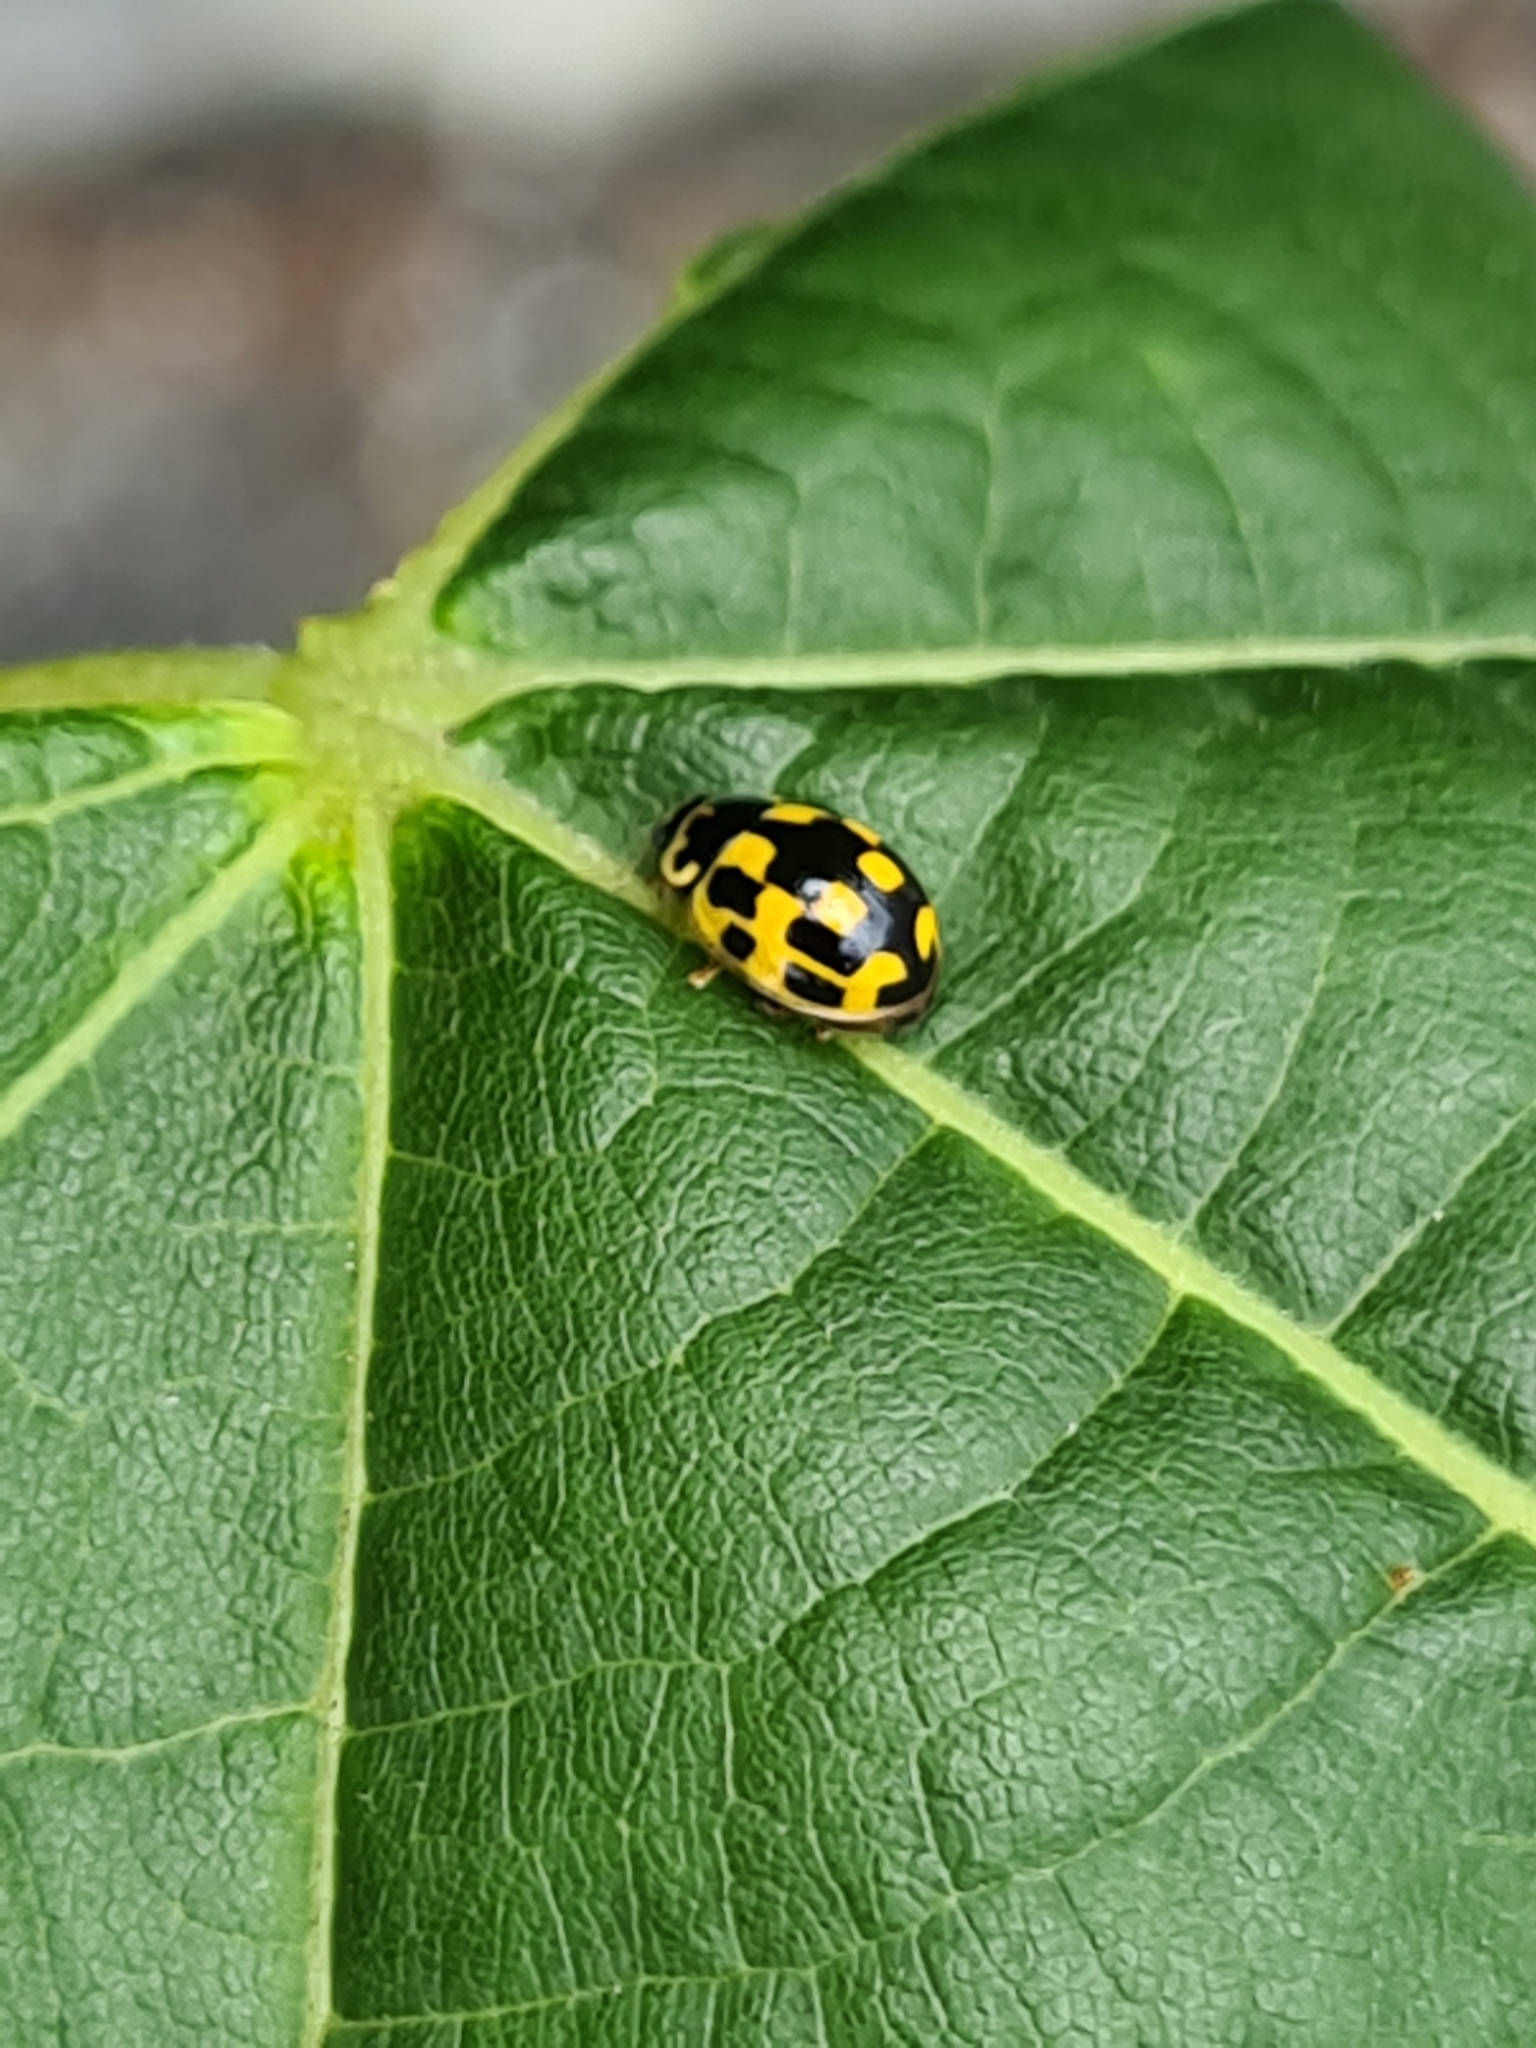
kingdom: Animalia
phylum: Arthropoda
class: Insecta
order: Coleoptera
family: Coccinellidae
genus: Propylaea
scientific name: Propylaea quatuordecimpunctata
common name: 14-spotted ladybird beetle
